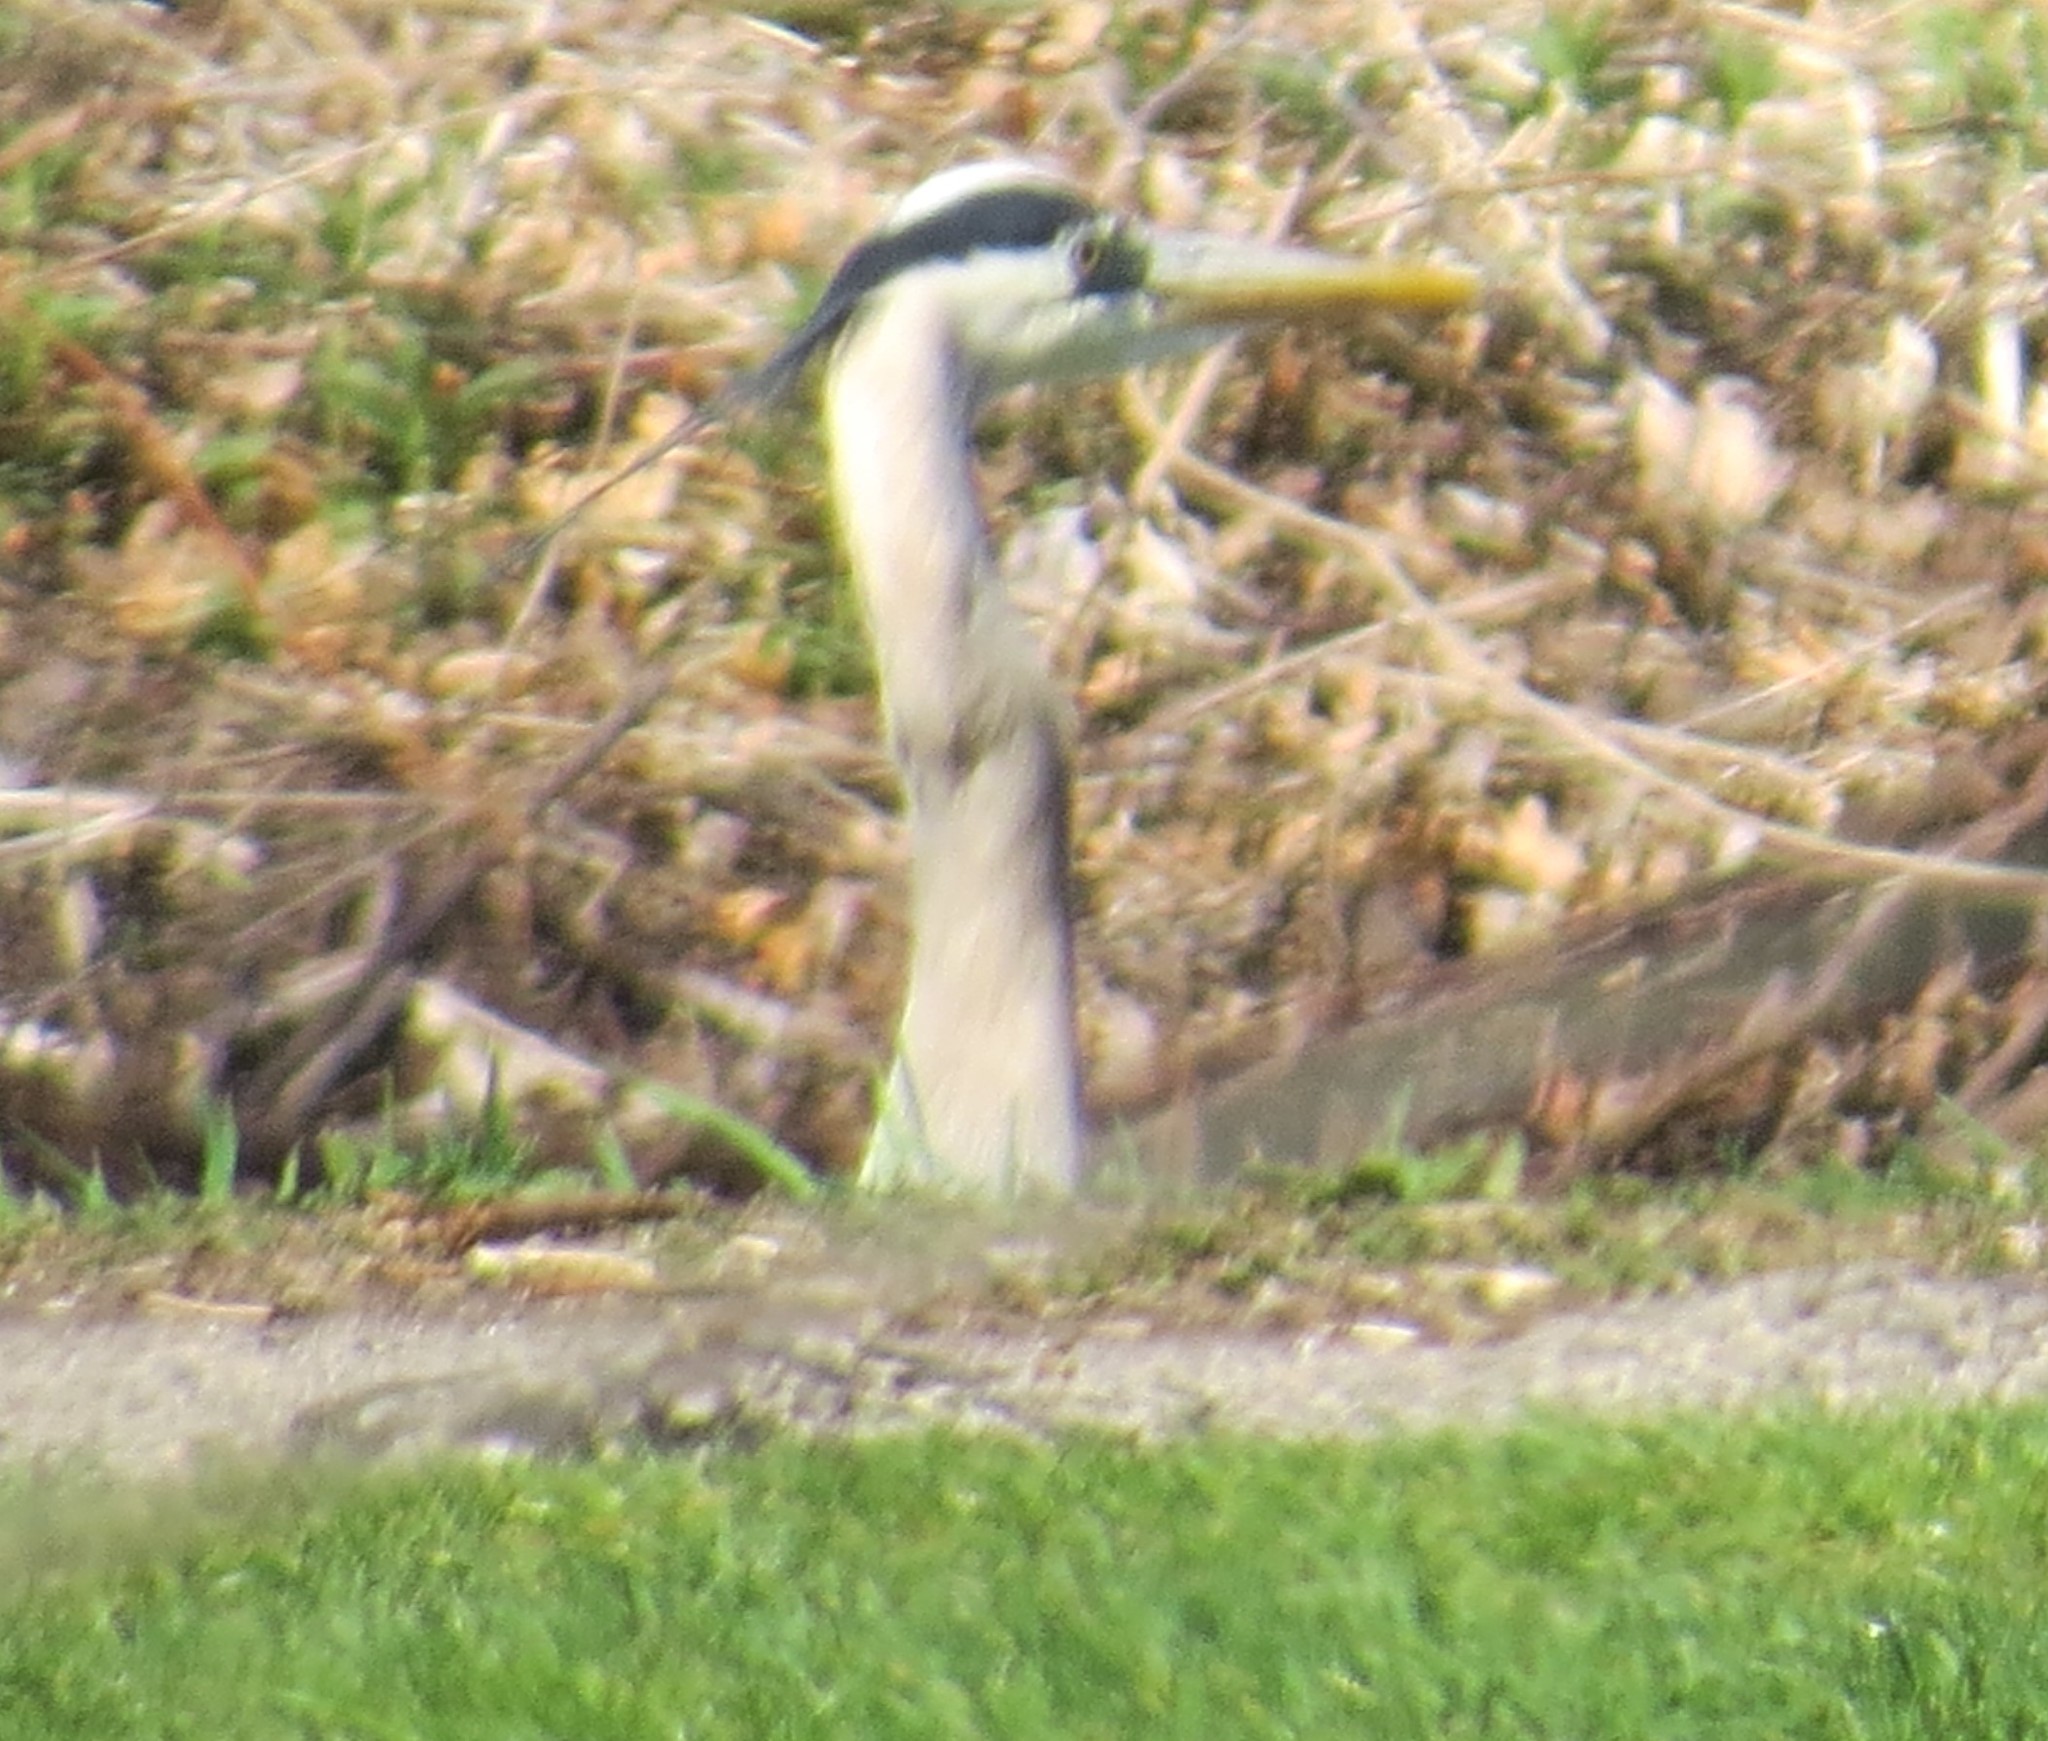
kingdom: Animalia
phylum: Chordata
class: Aves
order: Pelecaniformes
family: Ardeidae
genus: Ardea
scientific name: Ardea herodias
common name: Great blue heron
